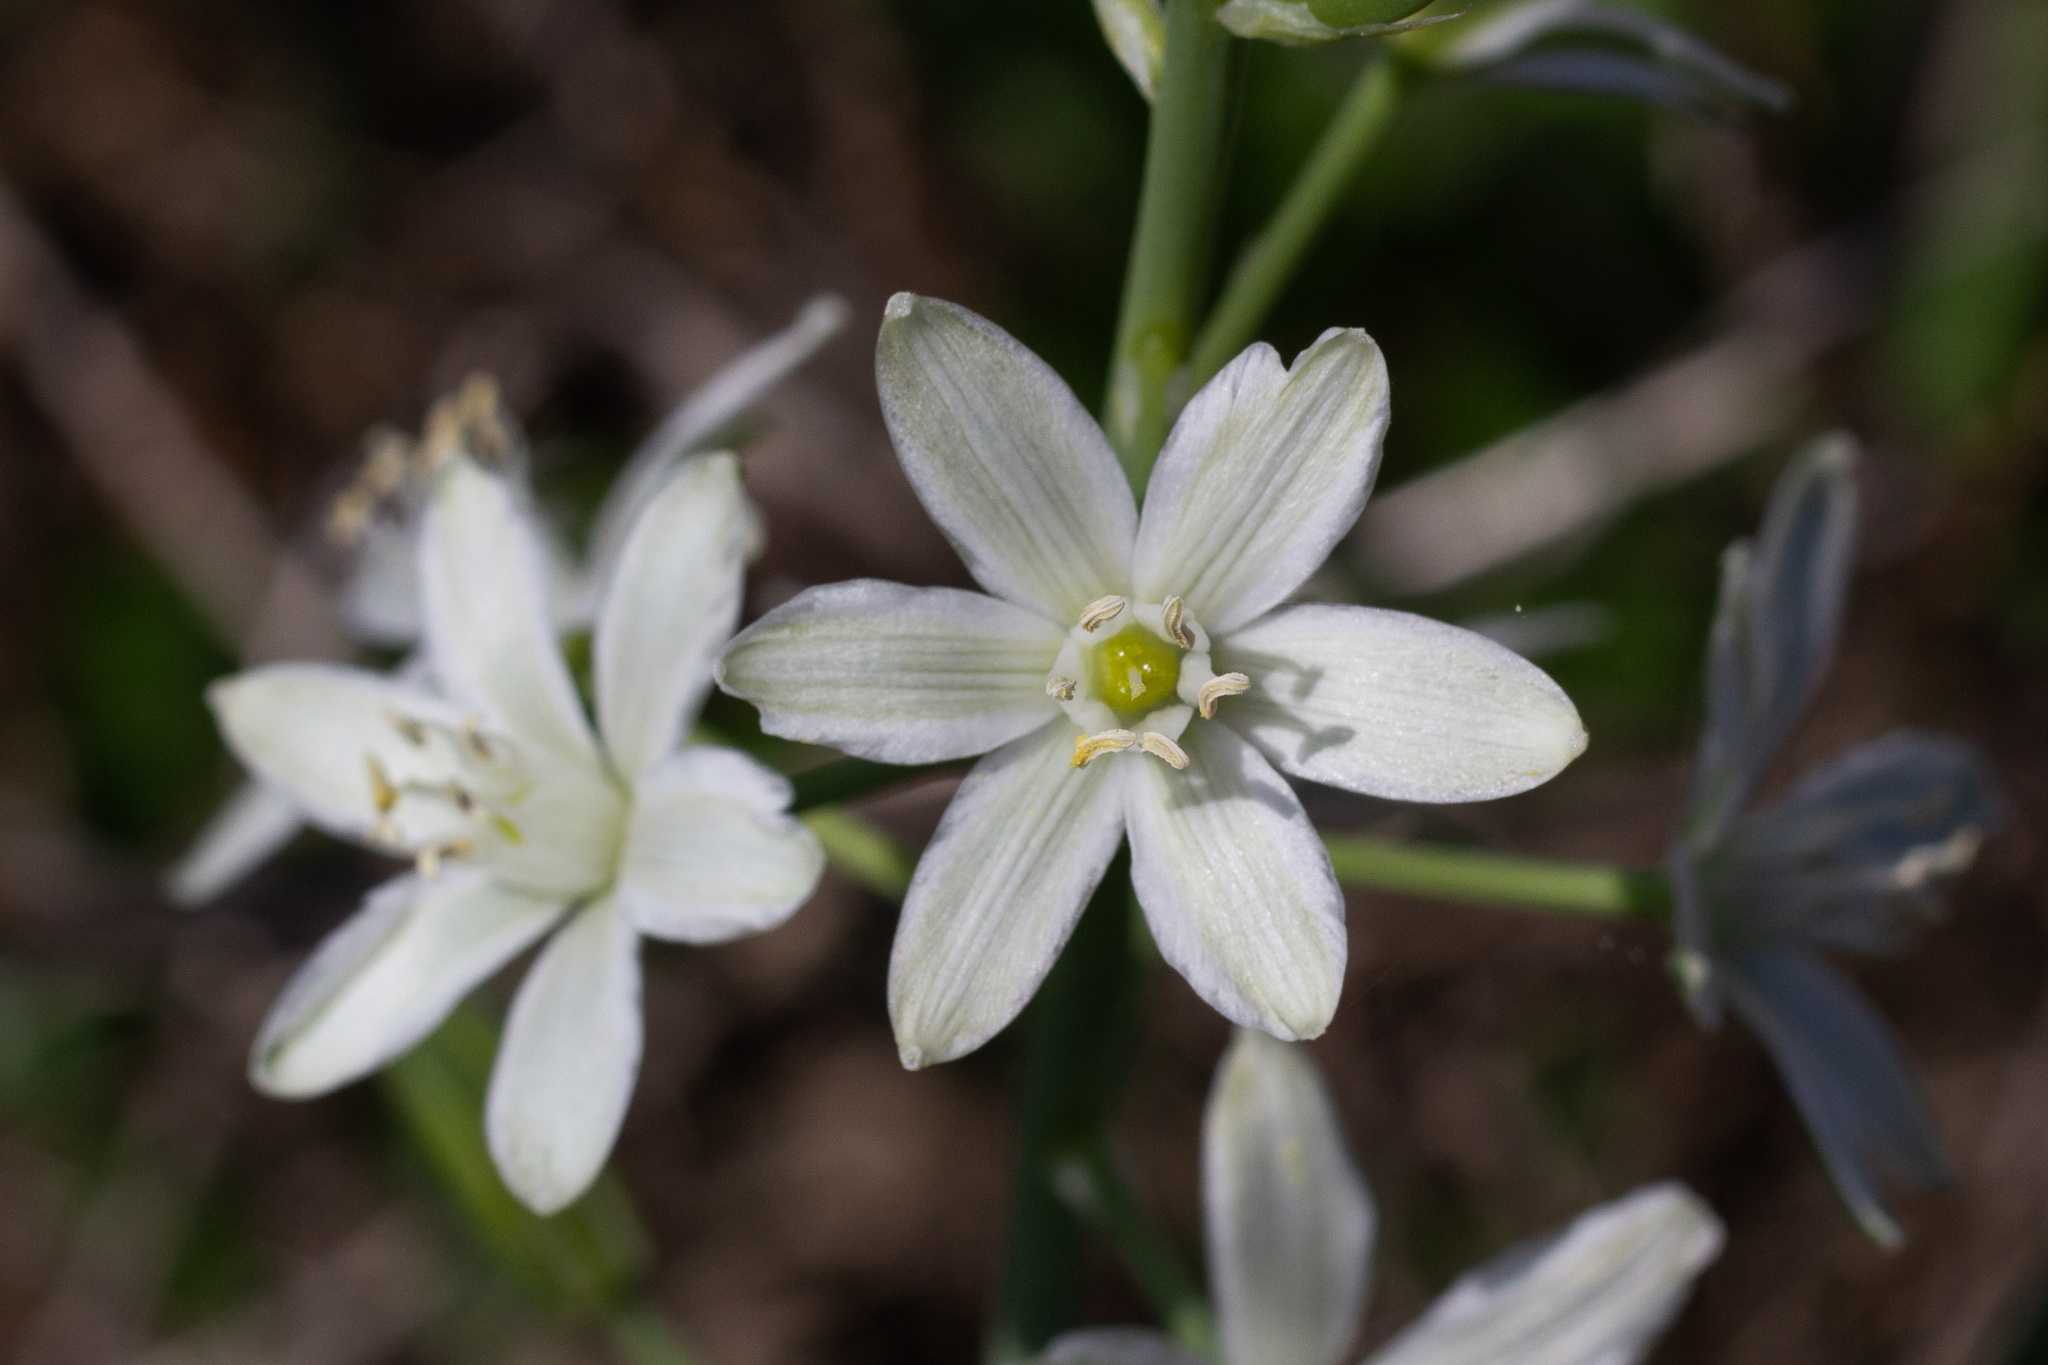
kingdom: Plantae
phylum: Tracheophyta
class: Liliopsida
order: Asparagales
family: Asparagaceae
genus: Ornithogalum
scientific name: Ornithogalum narbonense
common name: Bath-asparagus
